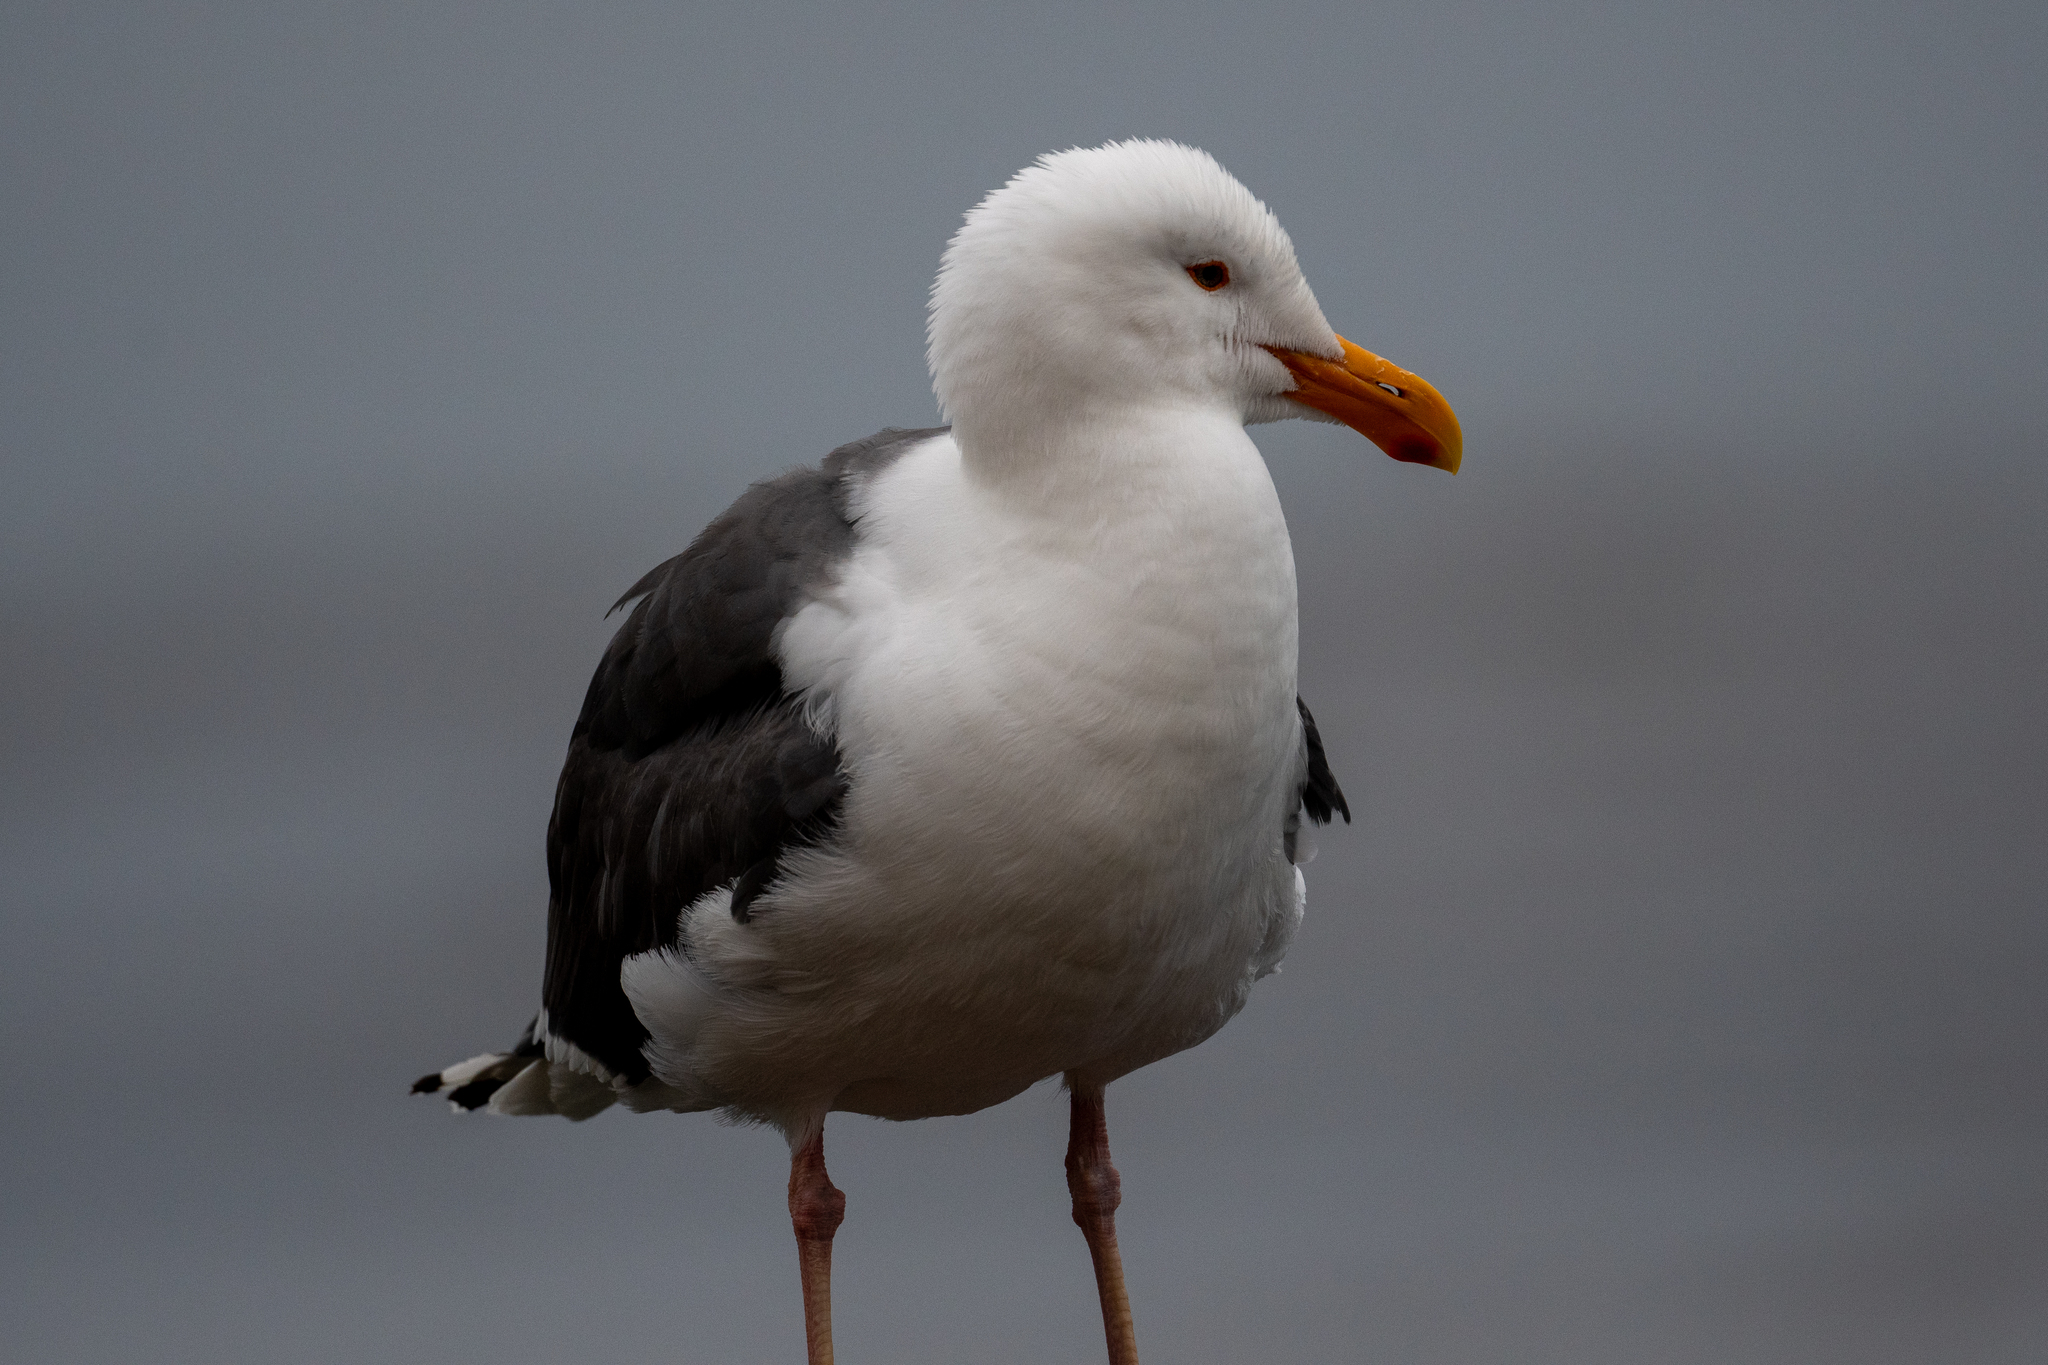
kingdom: Animalia
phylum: Chordata
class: Aves
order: Charadriiformes
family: Laridae
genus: Larus
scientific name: Larus occidentalis
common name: Western gull
